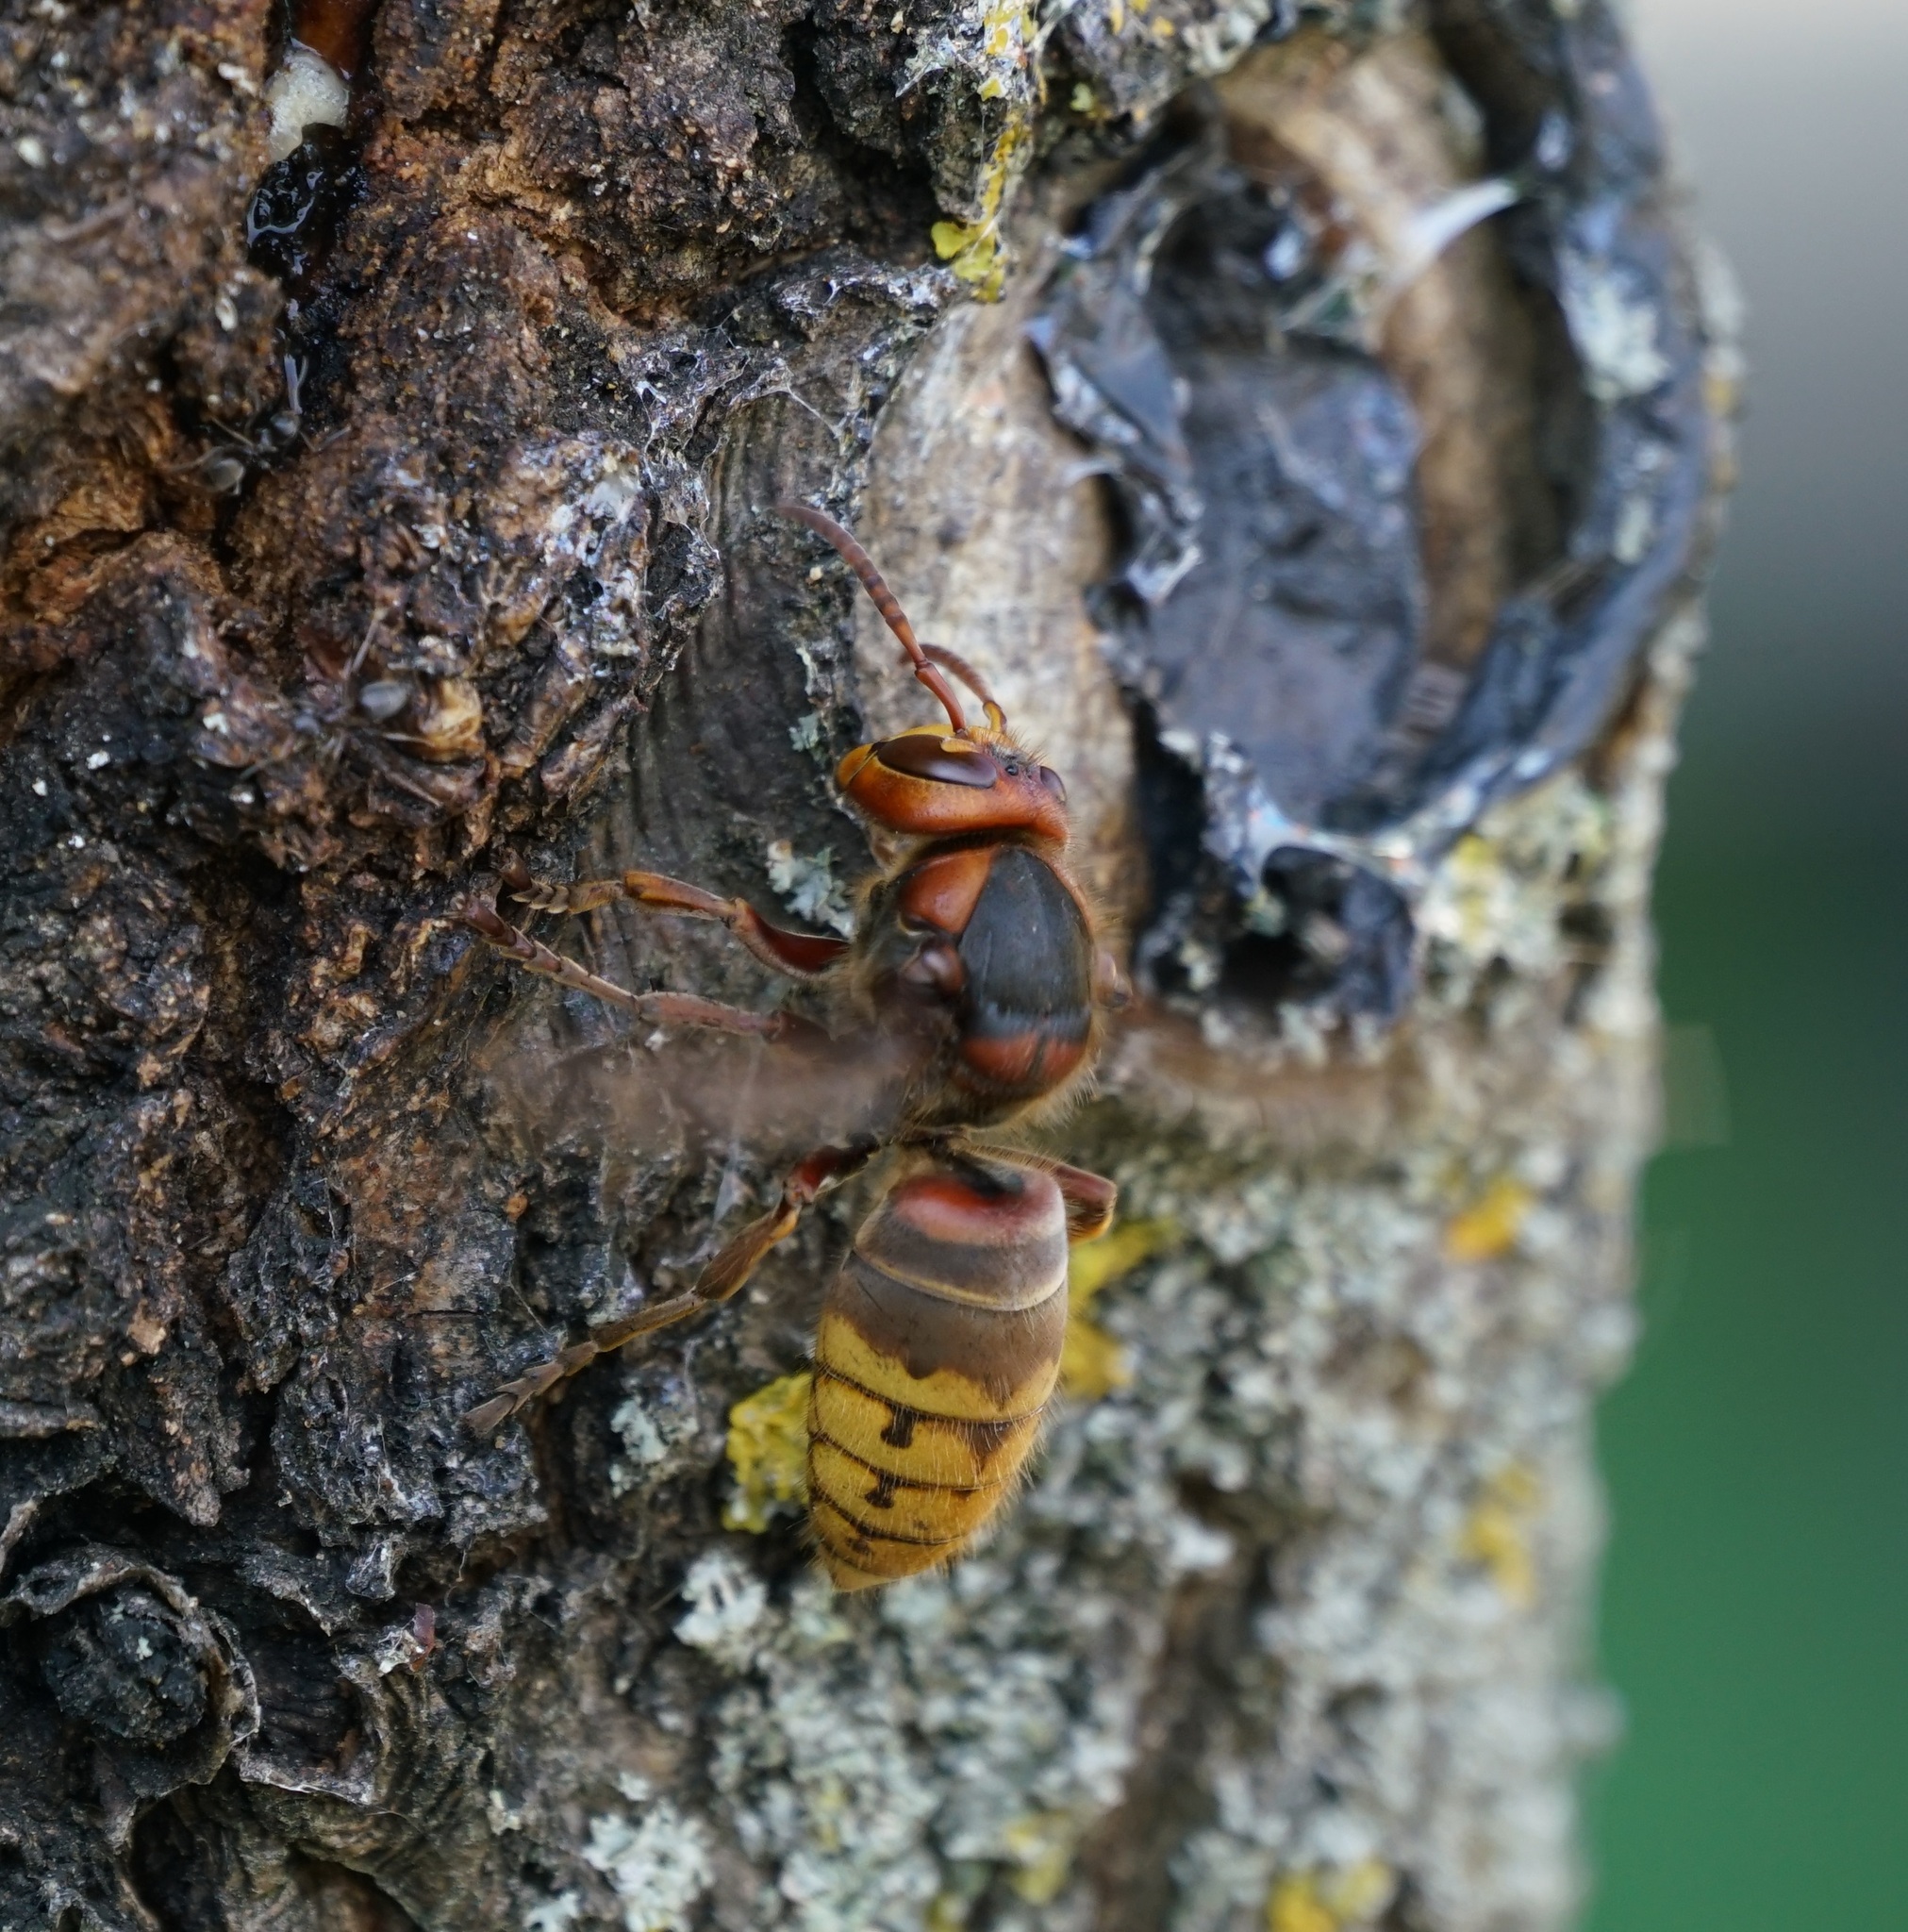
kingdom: Animalia
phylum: Arthropoda
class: Insecta
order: Hymenoptera
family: Vespidae
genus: Vespa
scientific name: Vespa crabro
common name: Hornet
